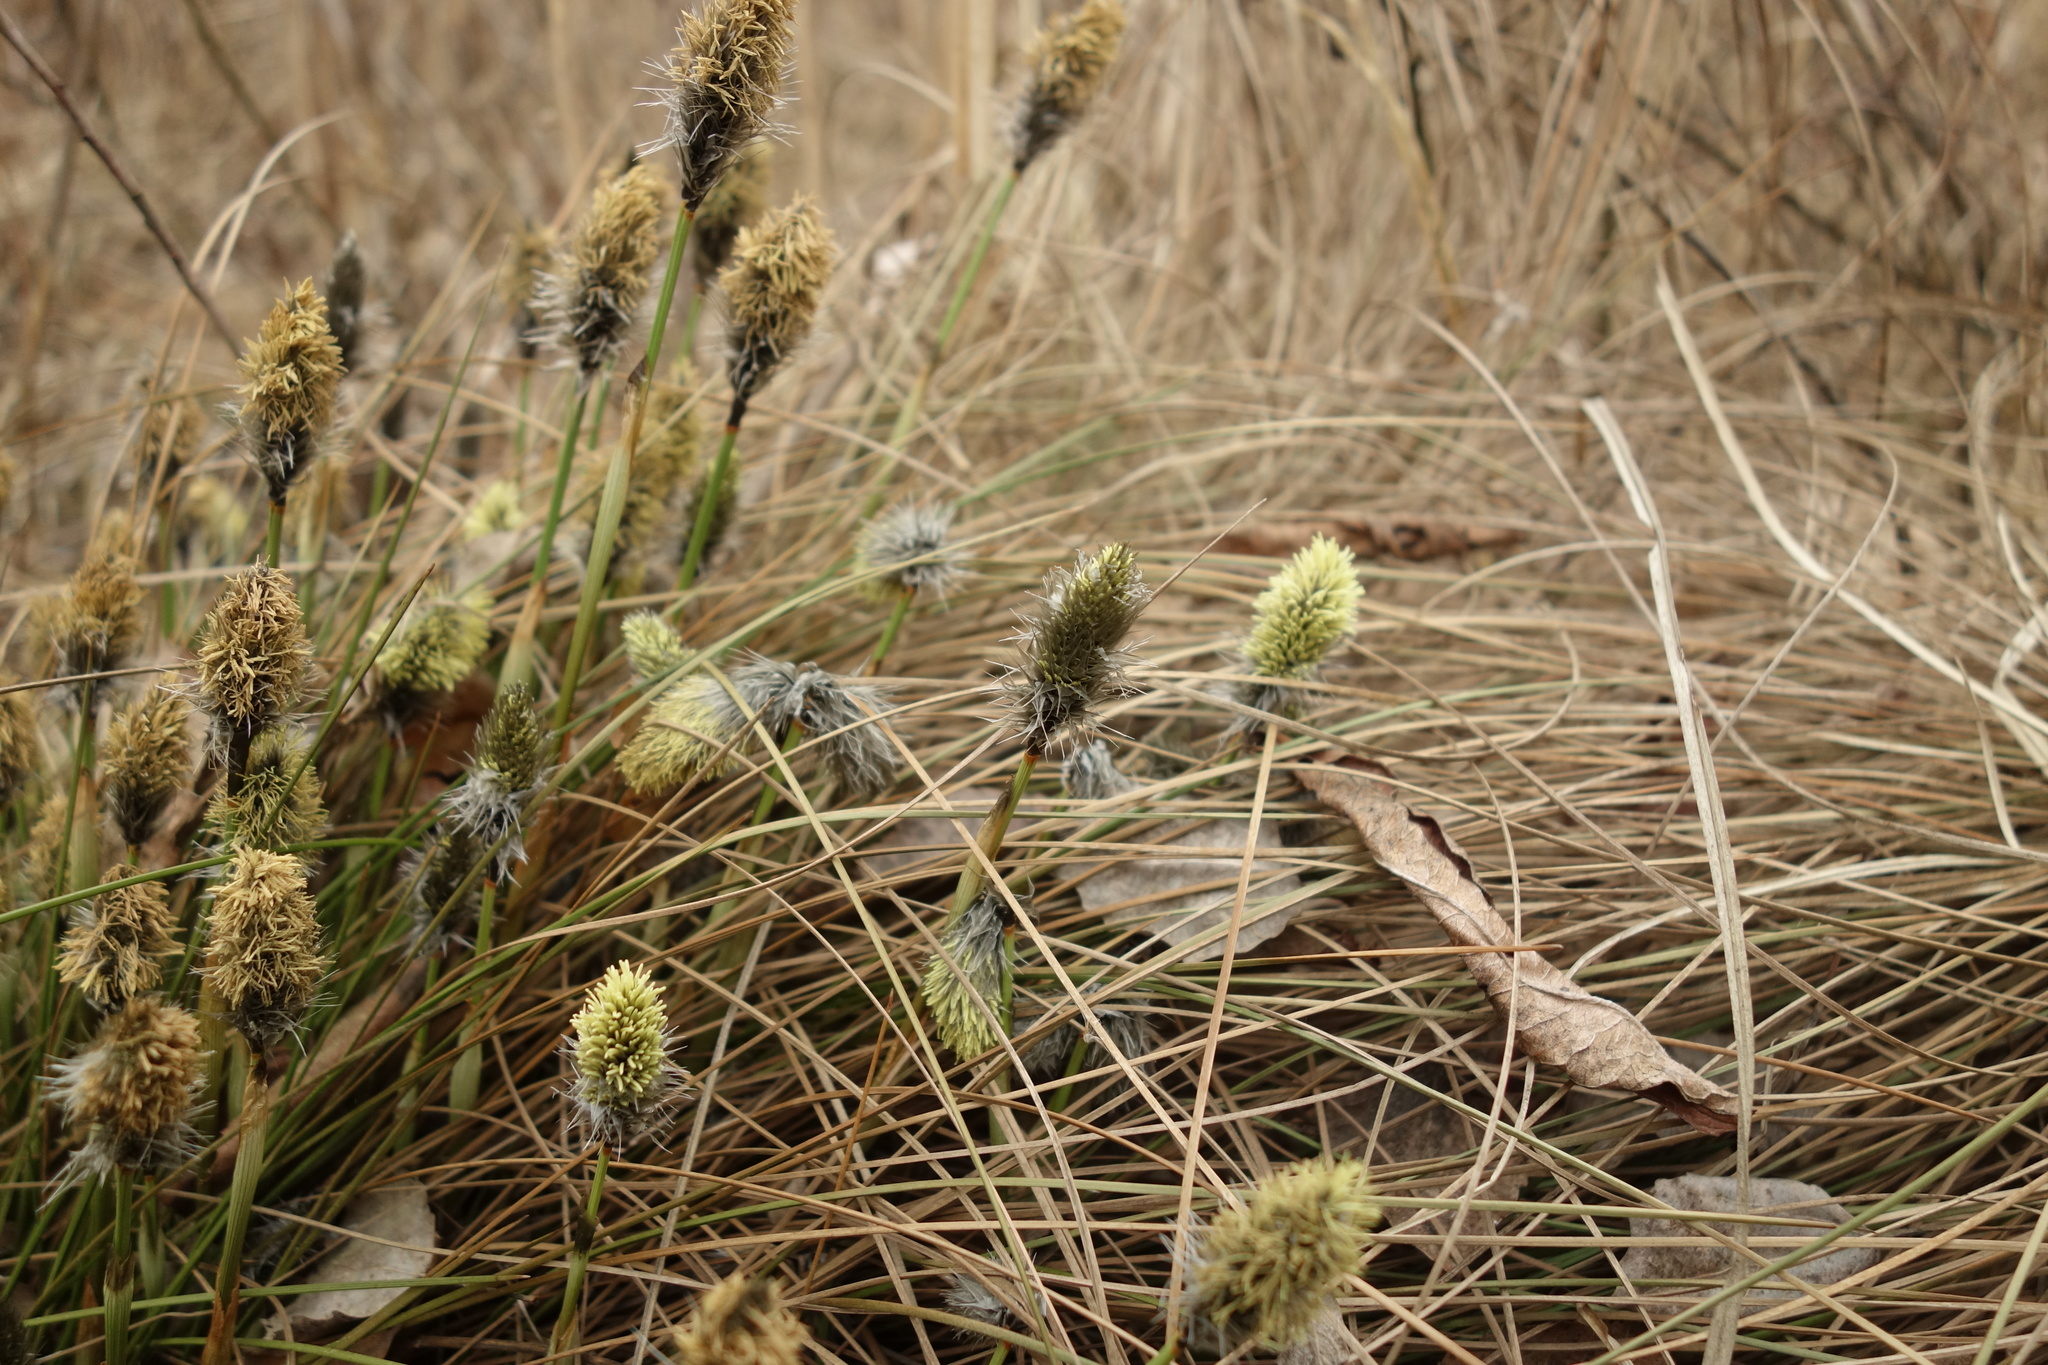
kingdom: Plantae
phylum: Tracheophyta
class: Liliopsida
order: Poales
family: Cyperaceae
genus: Eriophorum
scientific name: Eriophorum vaginatum
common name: Hare's-tail cottongrass
